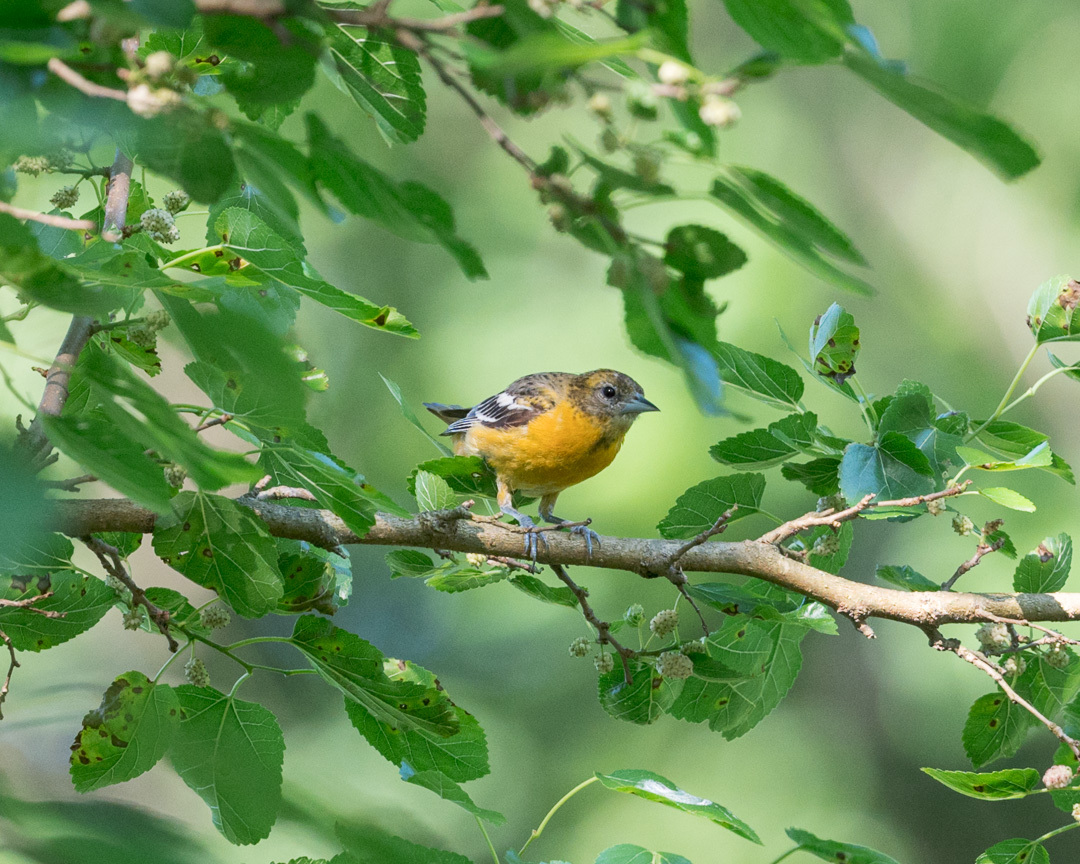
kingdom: Animalia
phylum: Chordata
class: Aves
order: Passeriformes
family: Icteridae
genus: Icterus
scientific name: Icterus galbula
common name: Baltimore oriole
